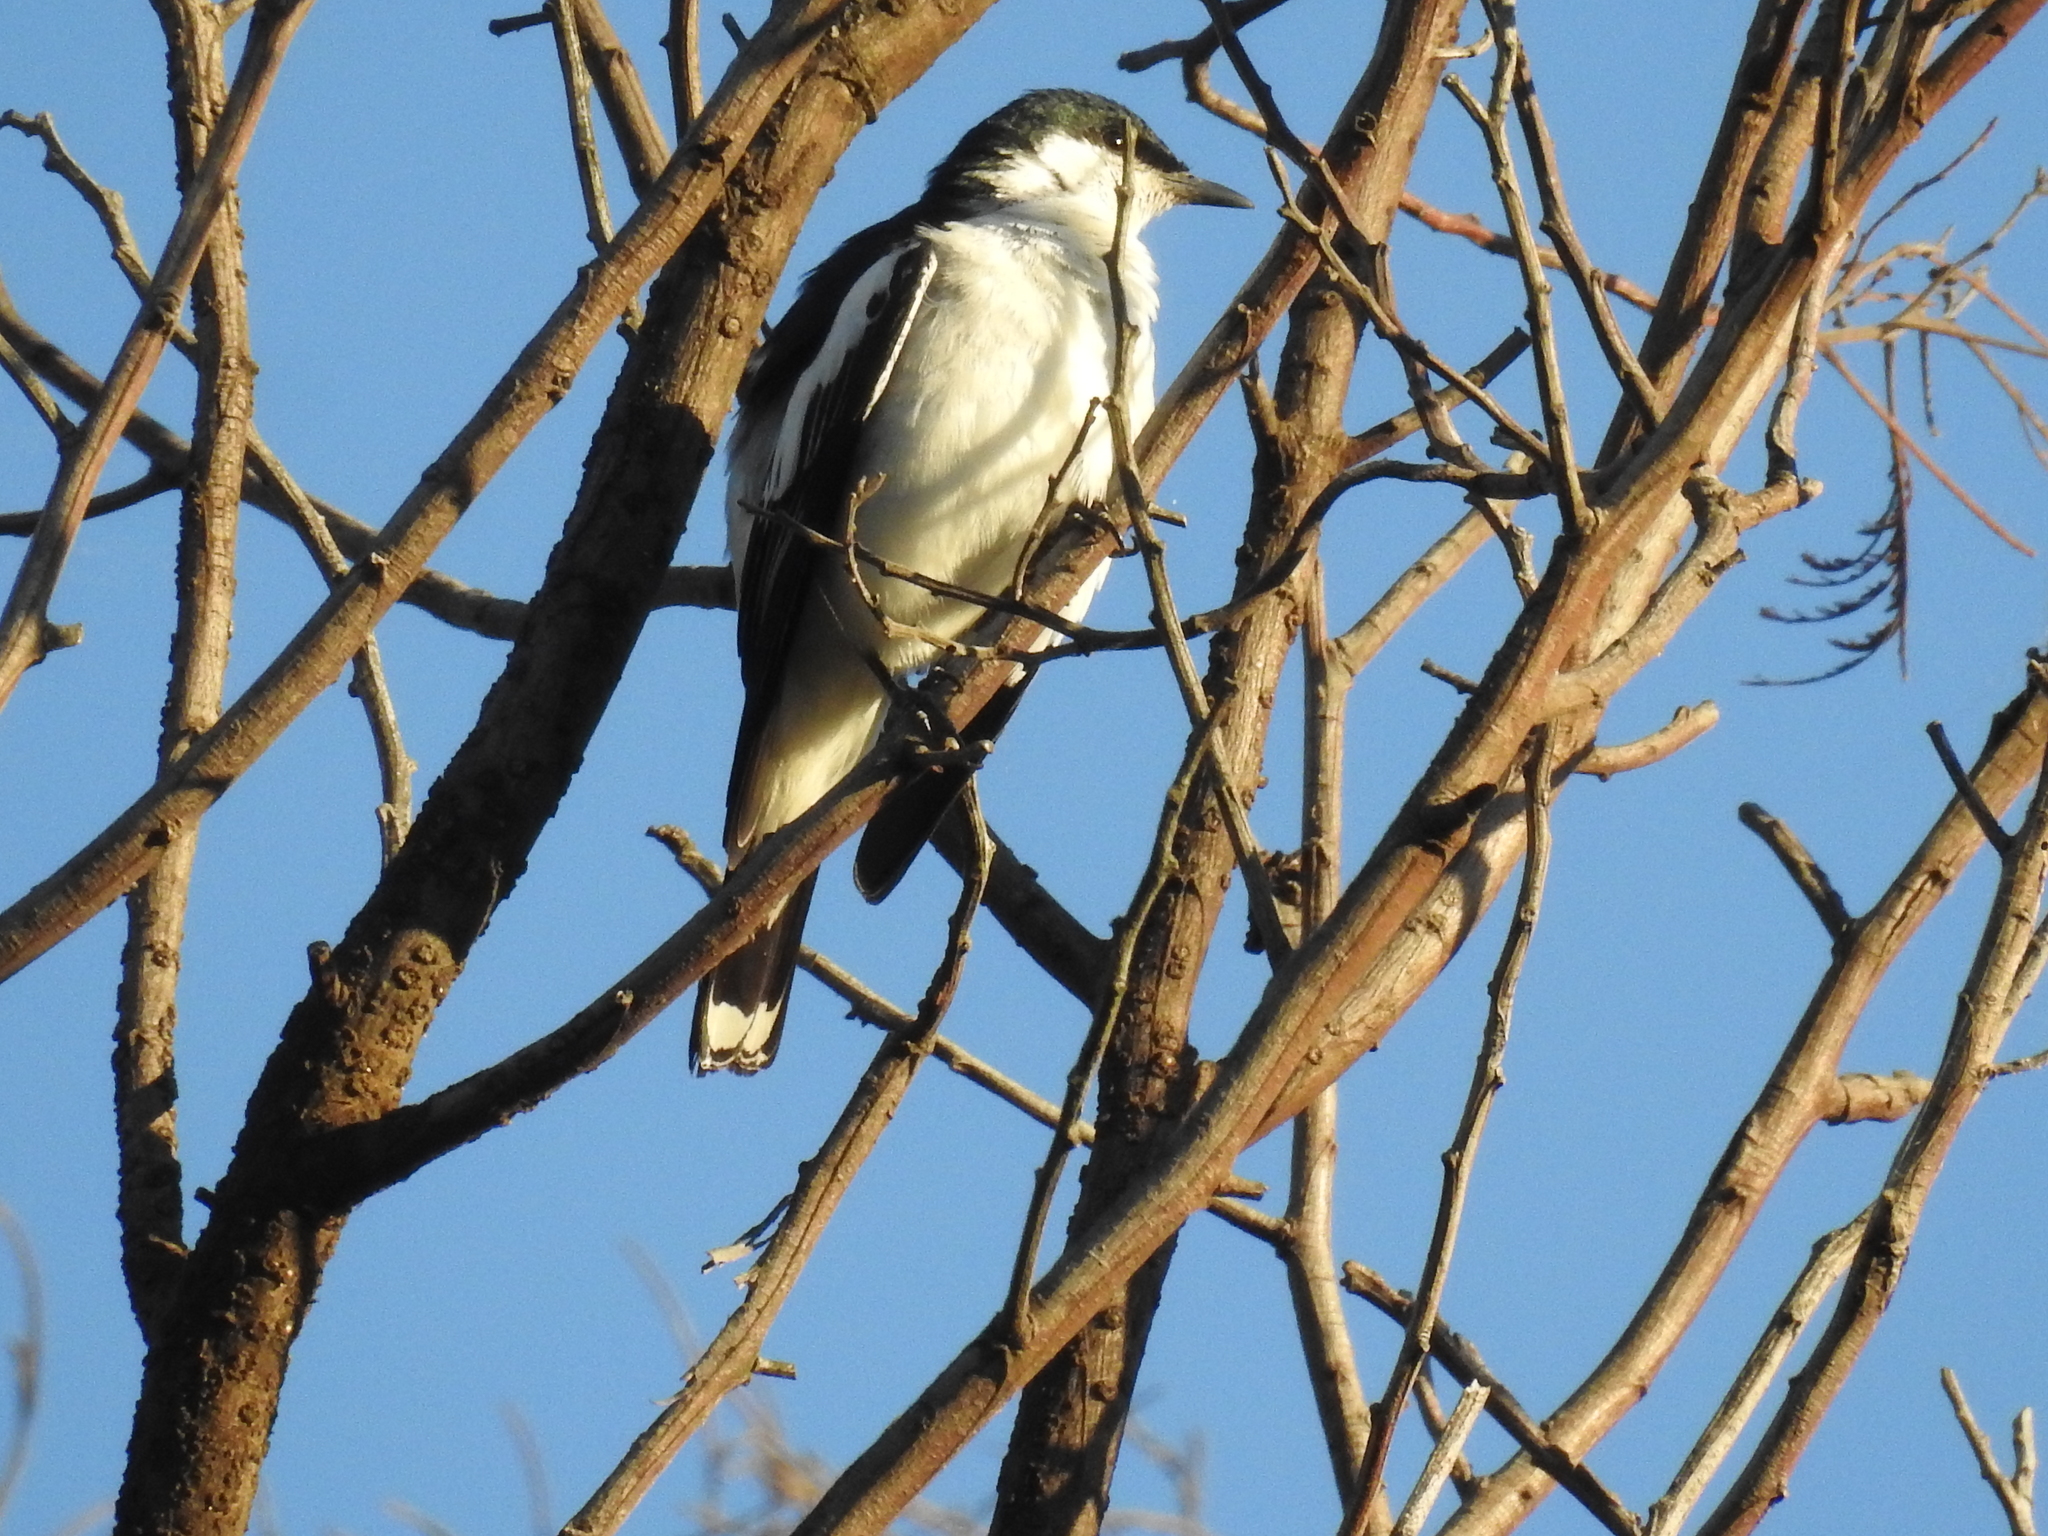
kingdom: Animalia
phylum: Chordata
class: Aves
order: Passeriformes
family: Campephagidae
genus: Lalage
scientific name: Lalage tricolor
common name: White-winged triller
